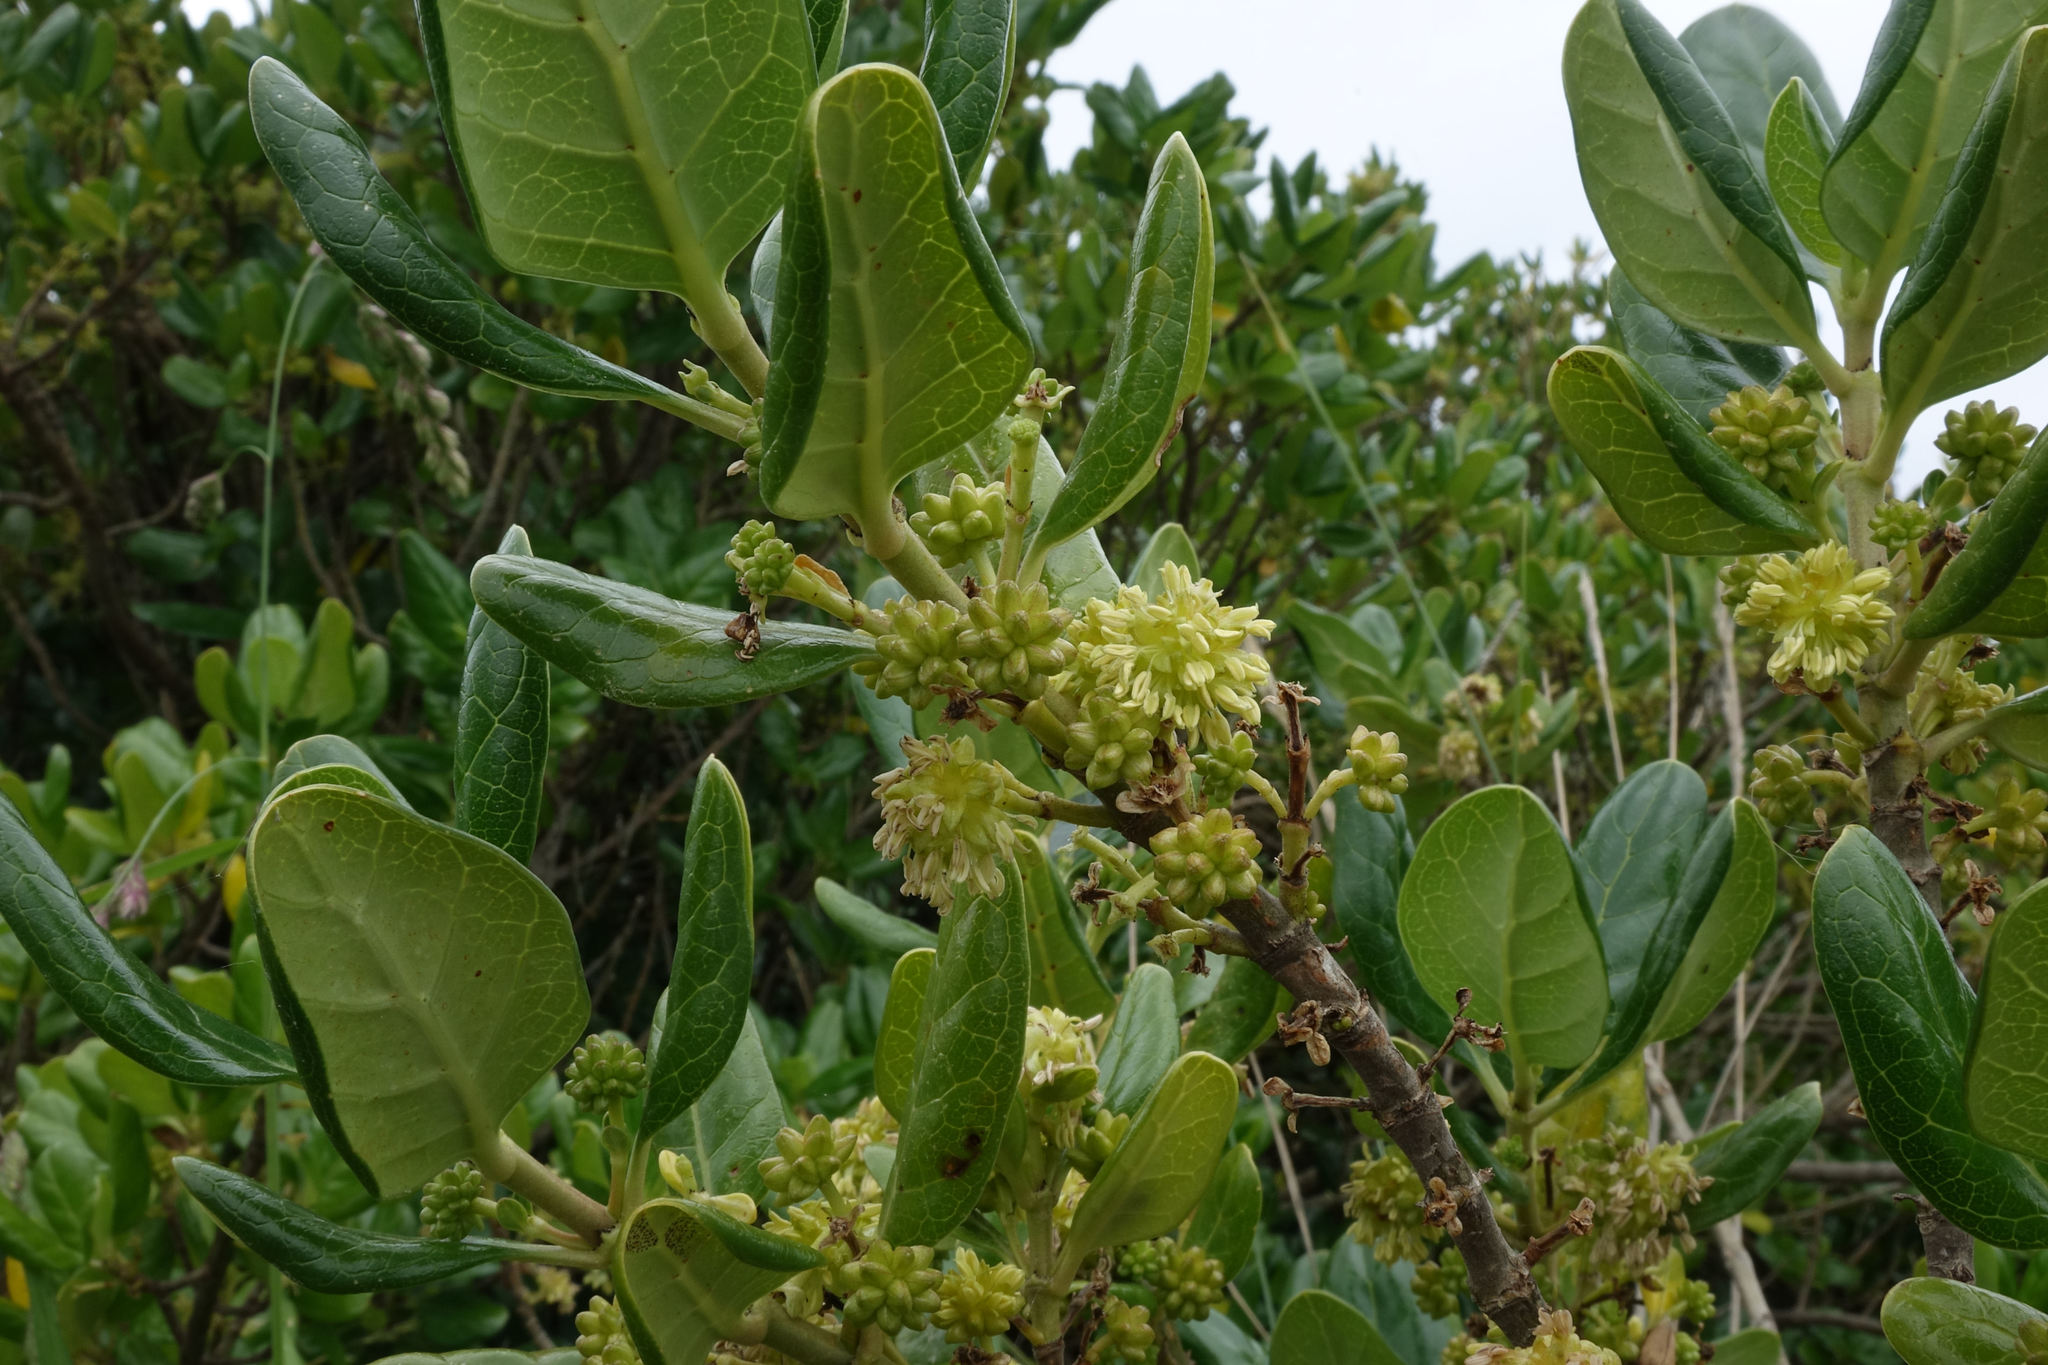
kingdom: Plantae
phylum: Tracheophyta
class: Magnoliopsida
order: Gentianales
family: Rubiaceae
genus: Coprosma
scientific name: Coprosma repens
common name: Tree bedstraw
